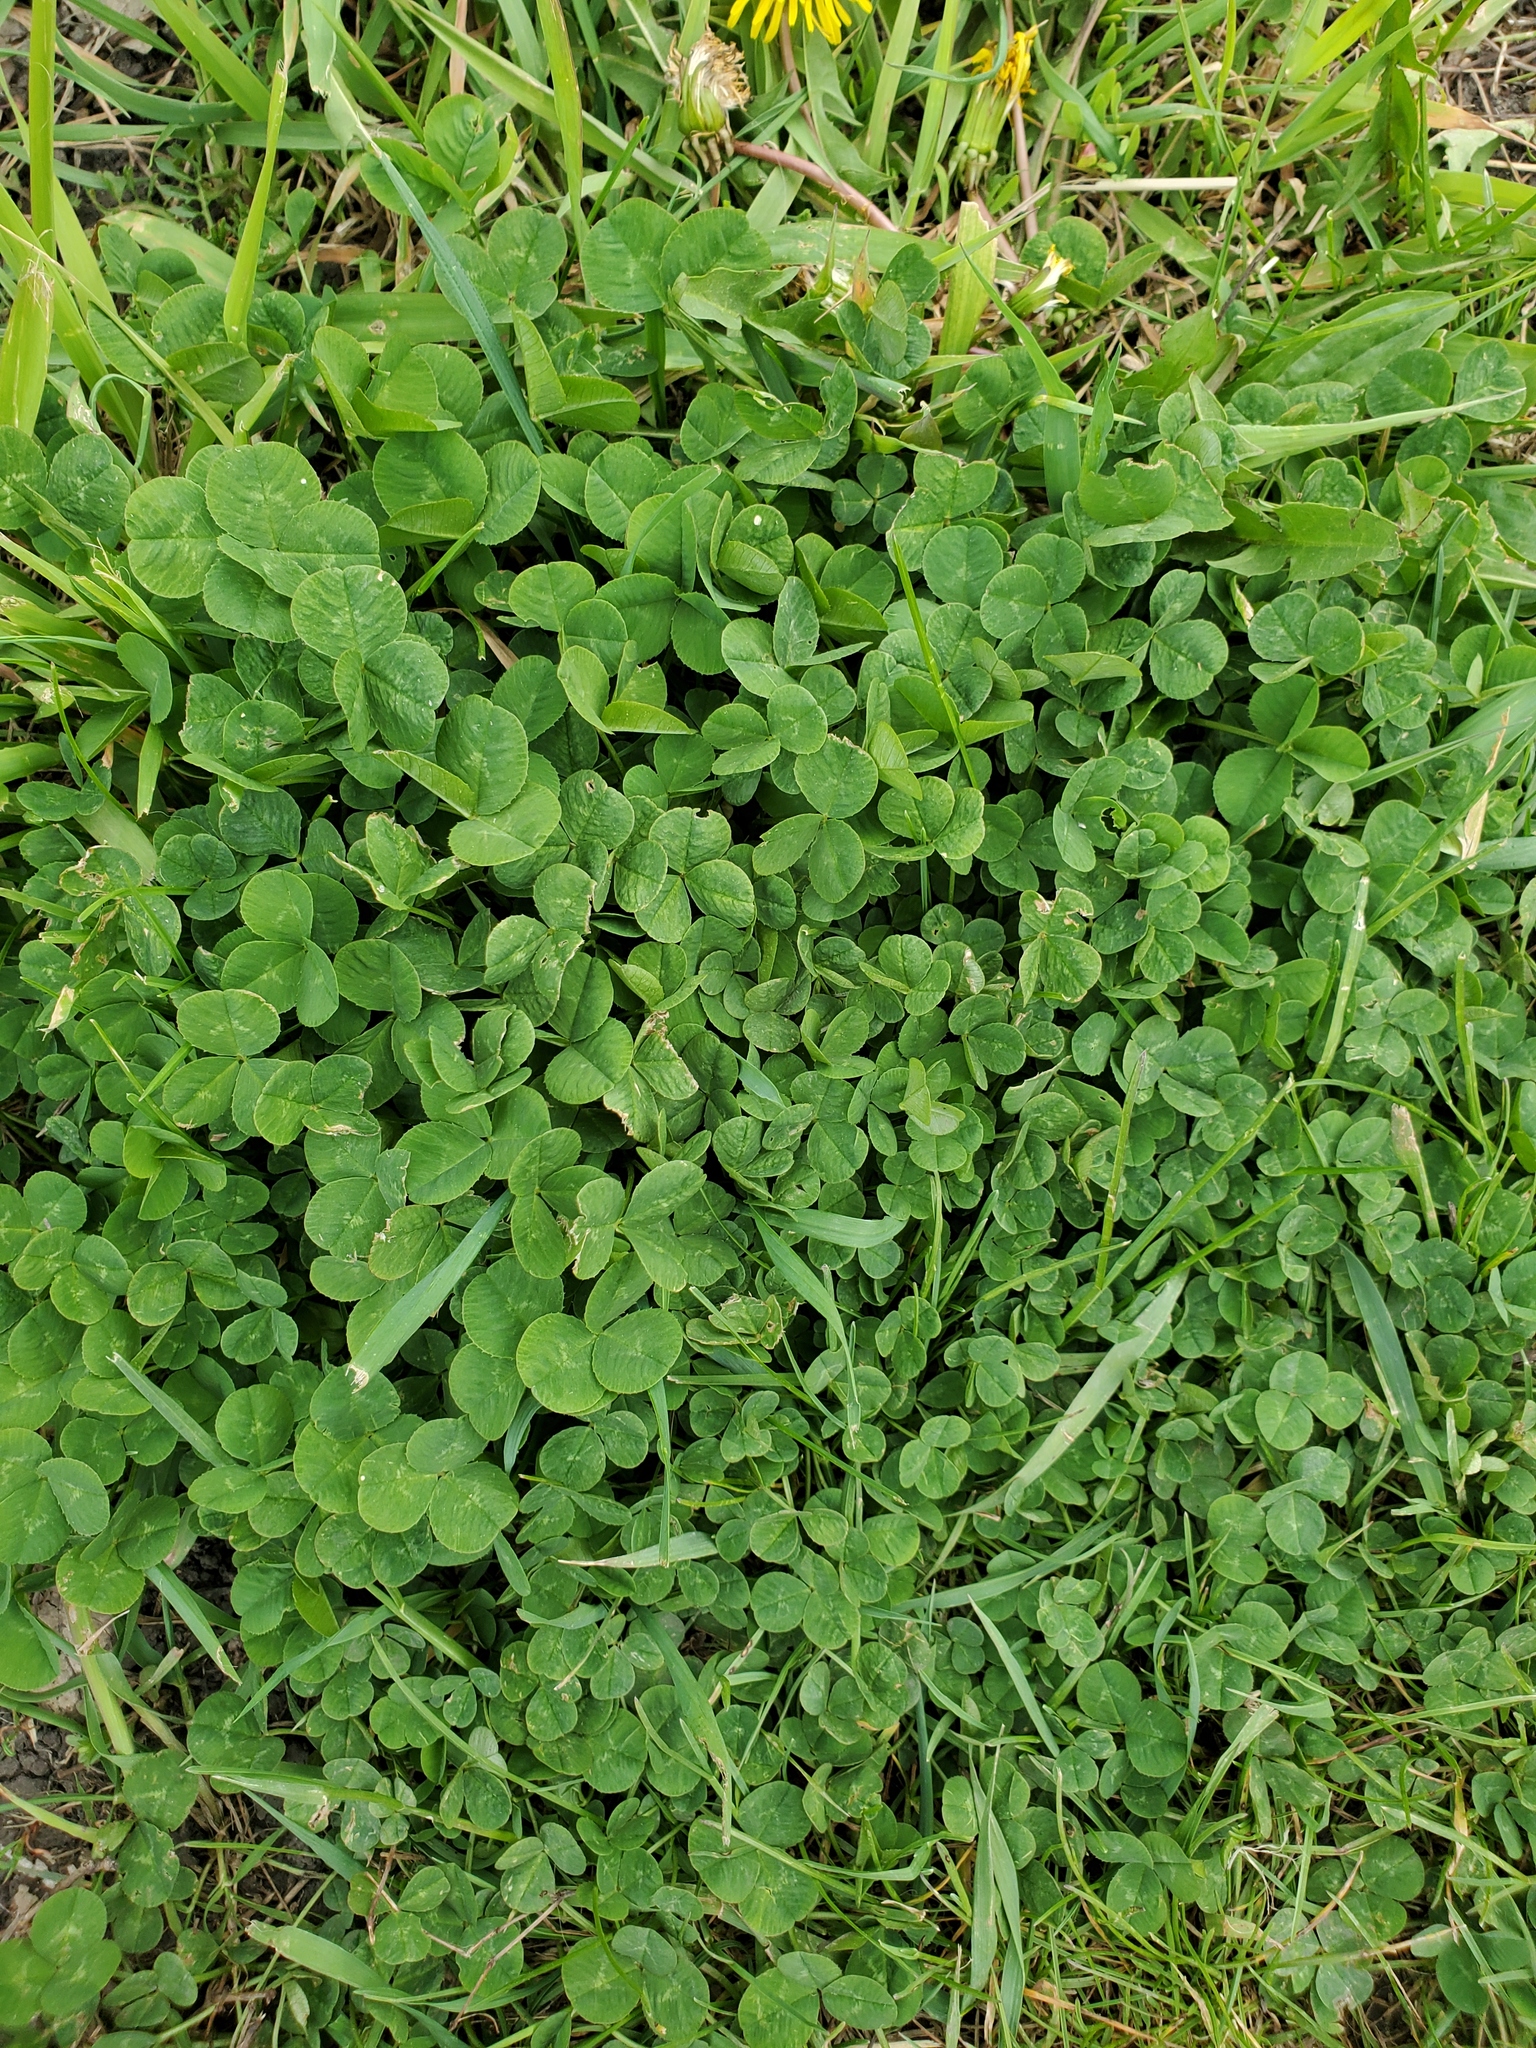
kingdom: Plantae
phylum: Tracheophyta
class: Magnoliopsida
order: Fabales
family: Fabaceae
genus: Trifolium
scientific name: Trifolium repens
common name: White clover
